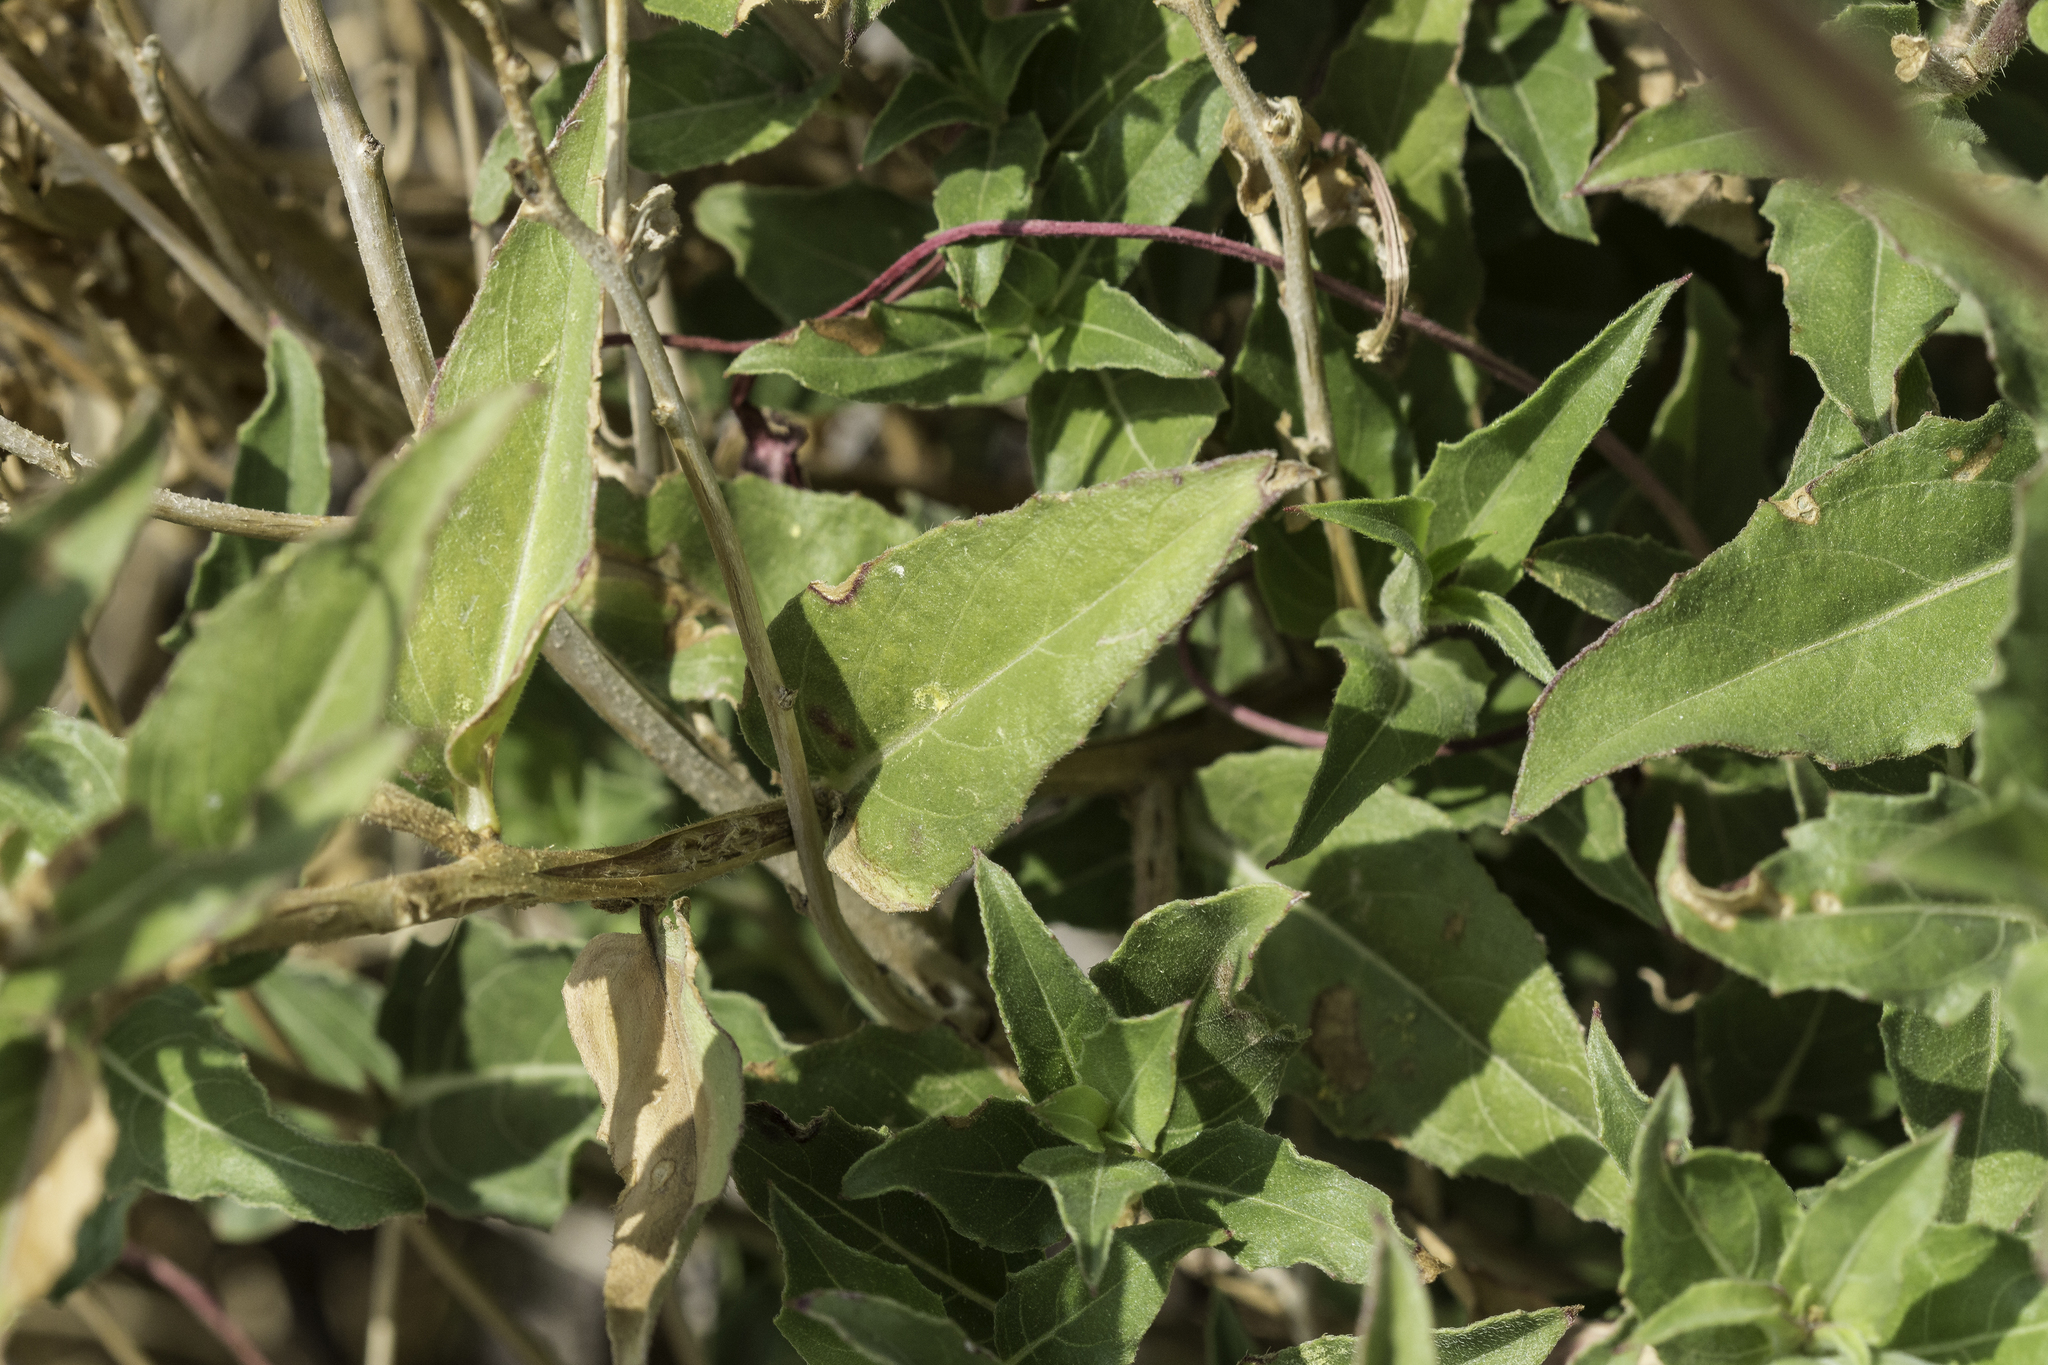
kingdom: Plantae
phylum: Tracheophyta
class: Magnoliopsida
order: Myrtales
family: Onagraceae
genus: Oenothera
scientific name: Oenothera organensis
